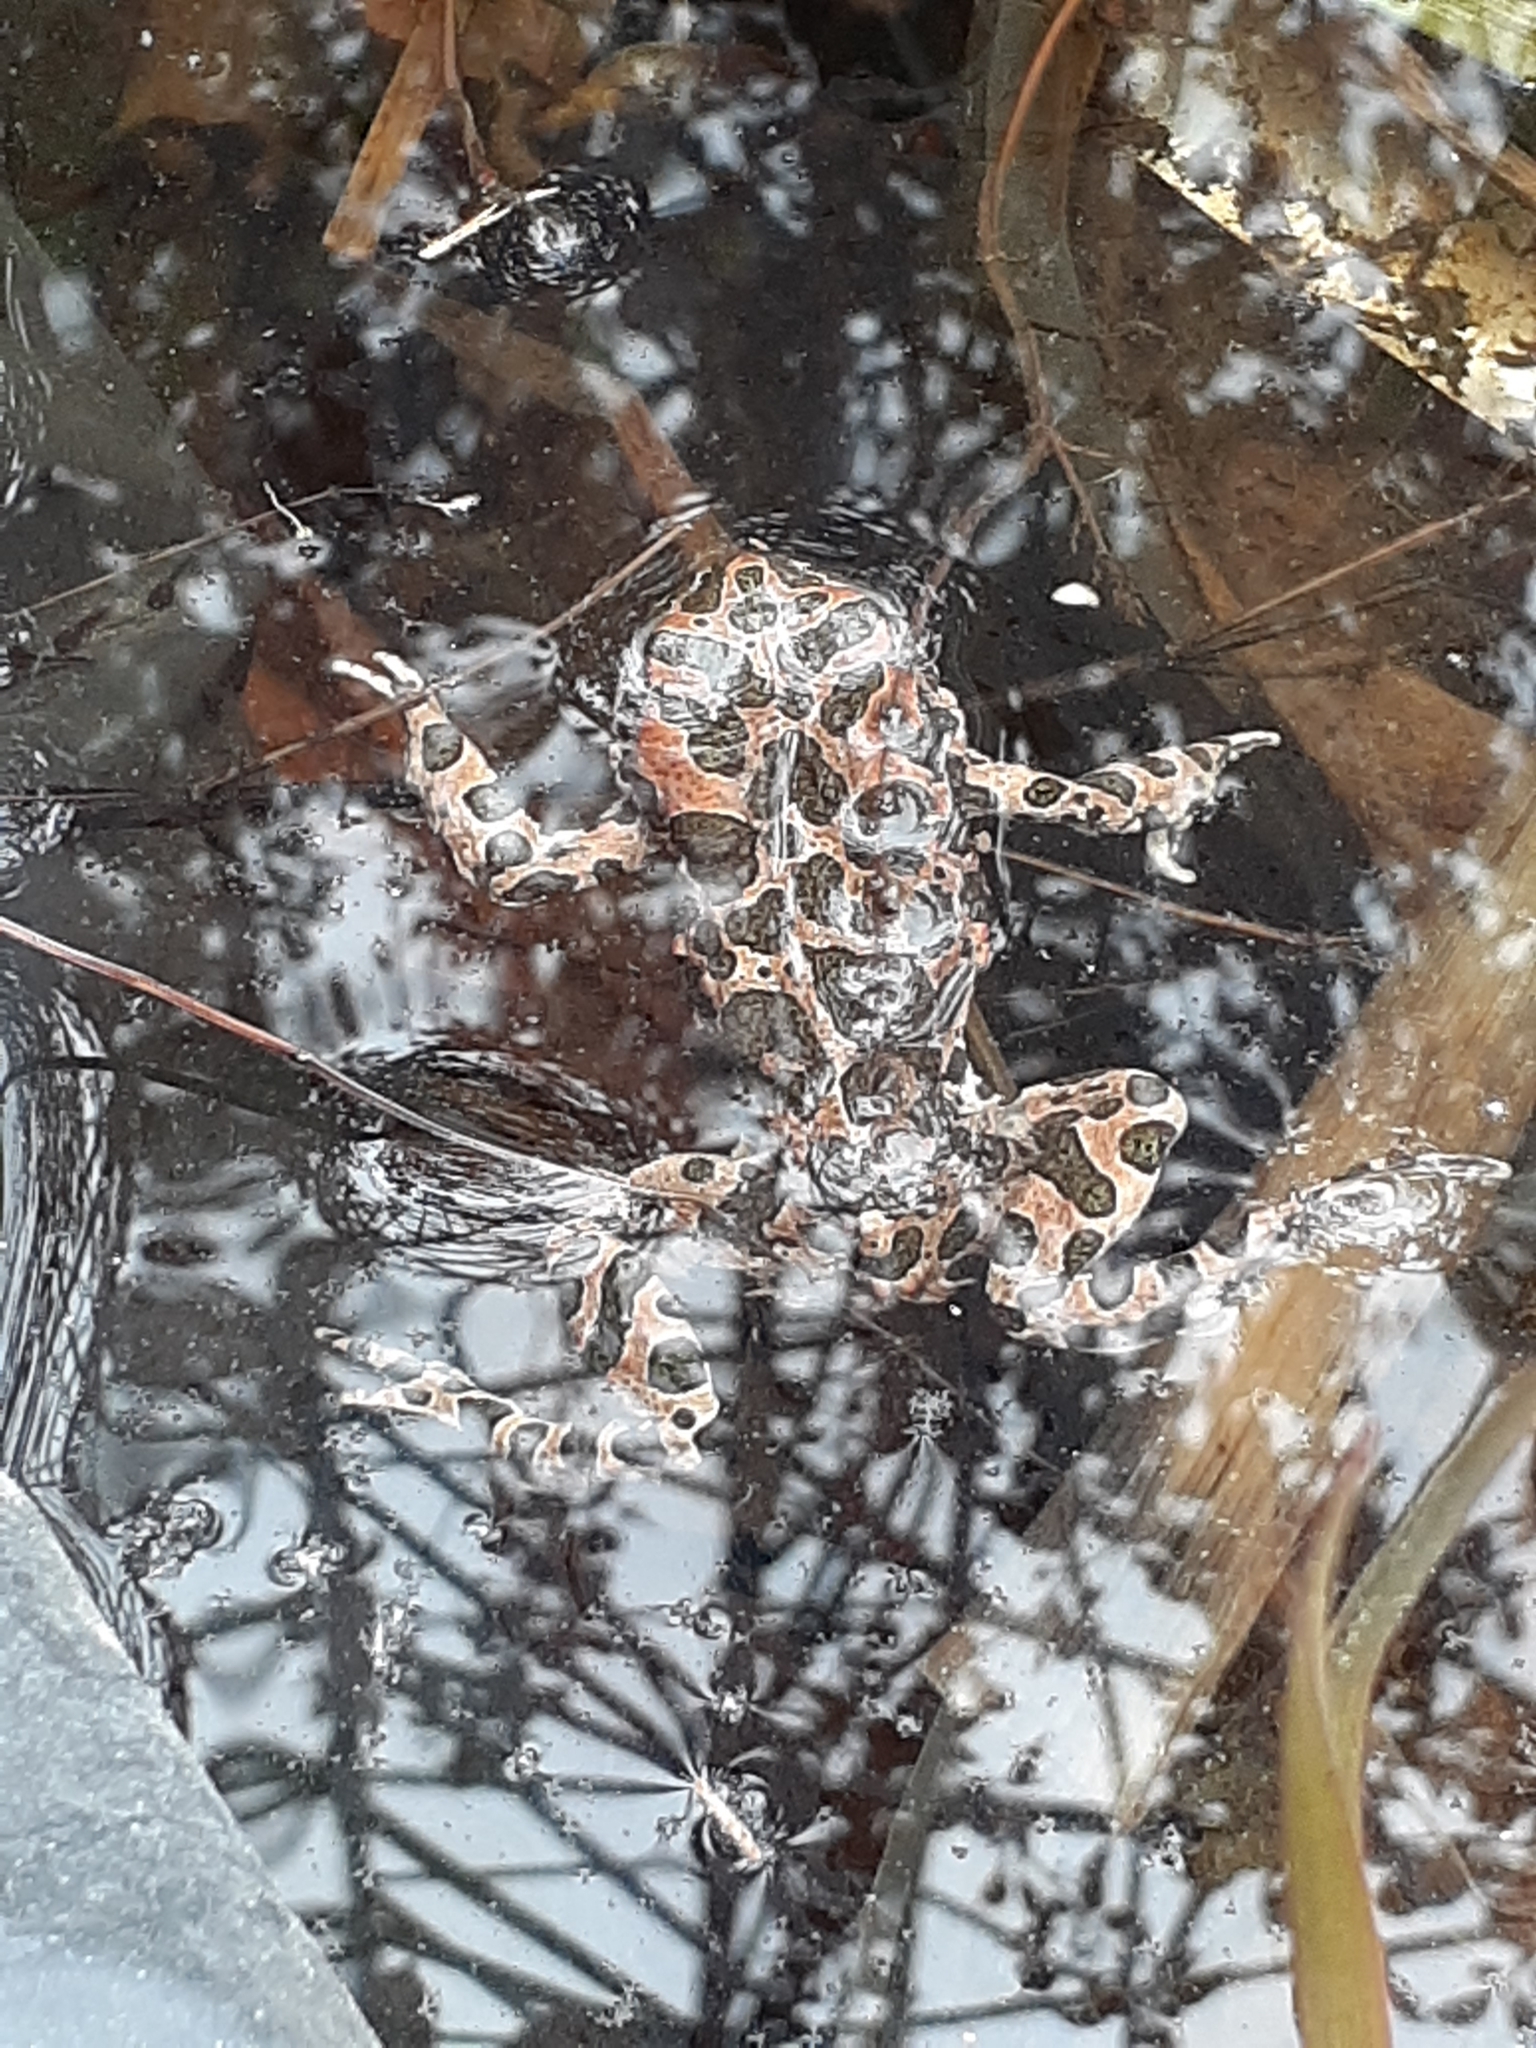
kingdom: Animalia
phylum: Chordata
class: Amphibia
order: Anura
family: Bufonidae
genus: Bufotes
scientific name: Bufotes viridis
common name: European green toad
